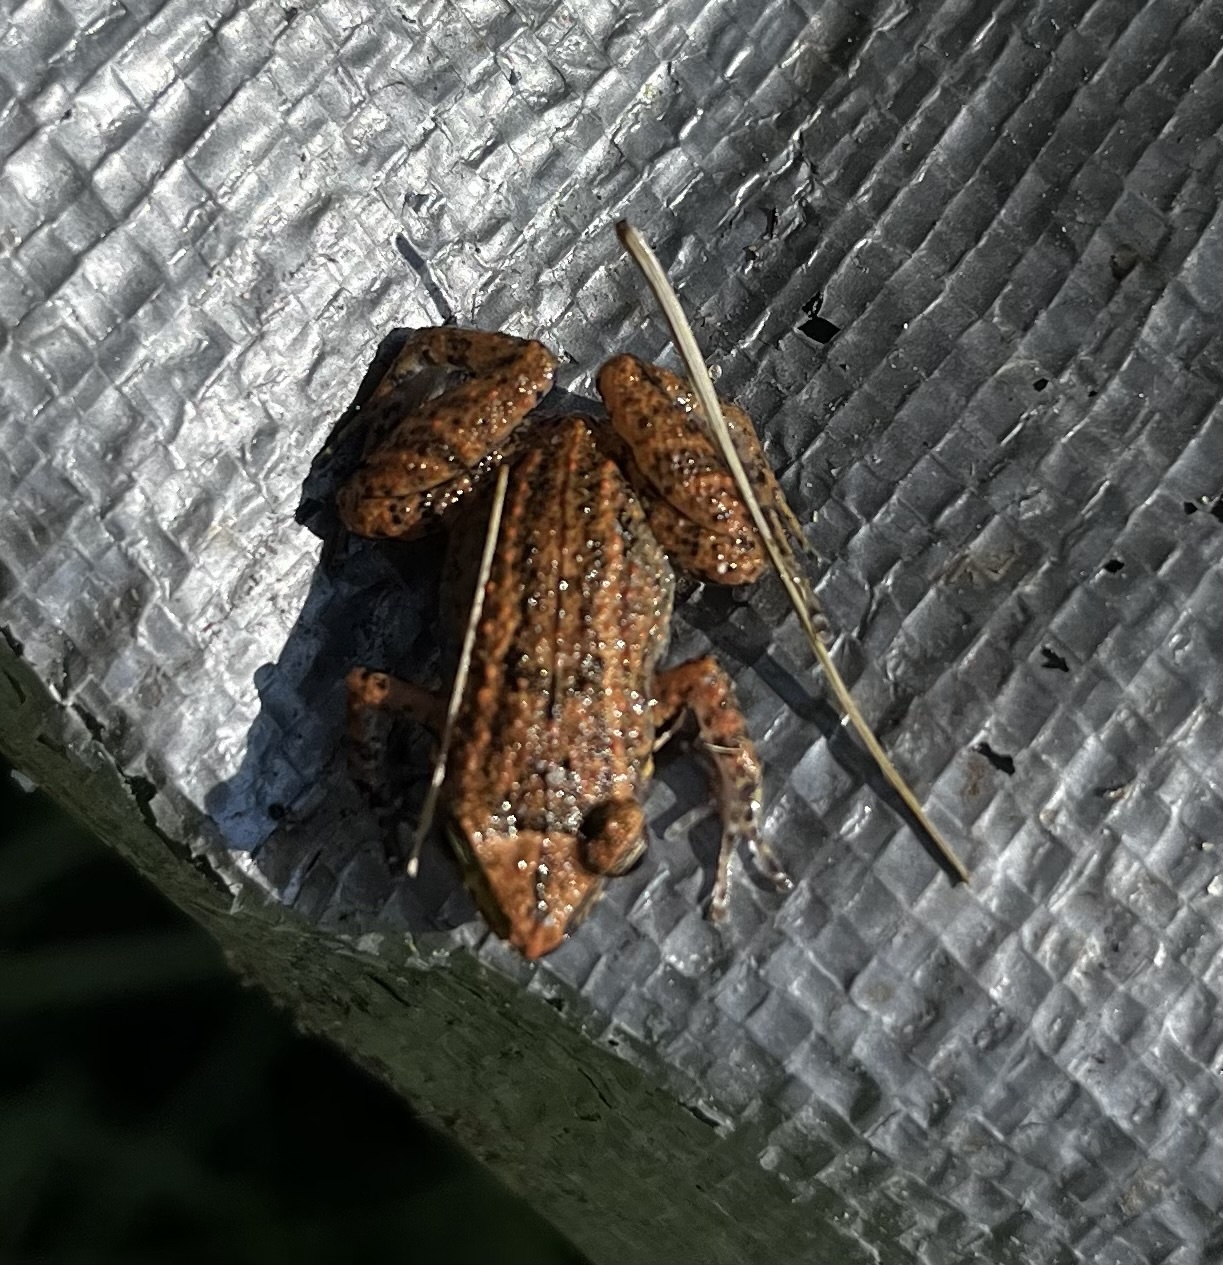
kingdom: Animalia
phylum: Chordata
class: Amphibia
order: Anura
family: Eleutherodactylidae
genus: Eleutherodactylus
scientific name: Eleutherodactylus planirostris
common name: Greenhouse frog
